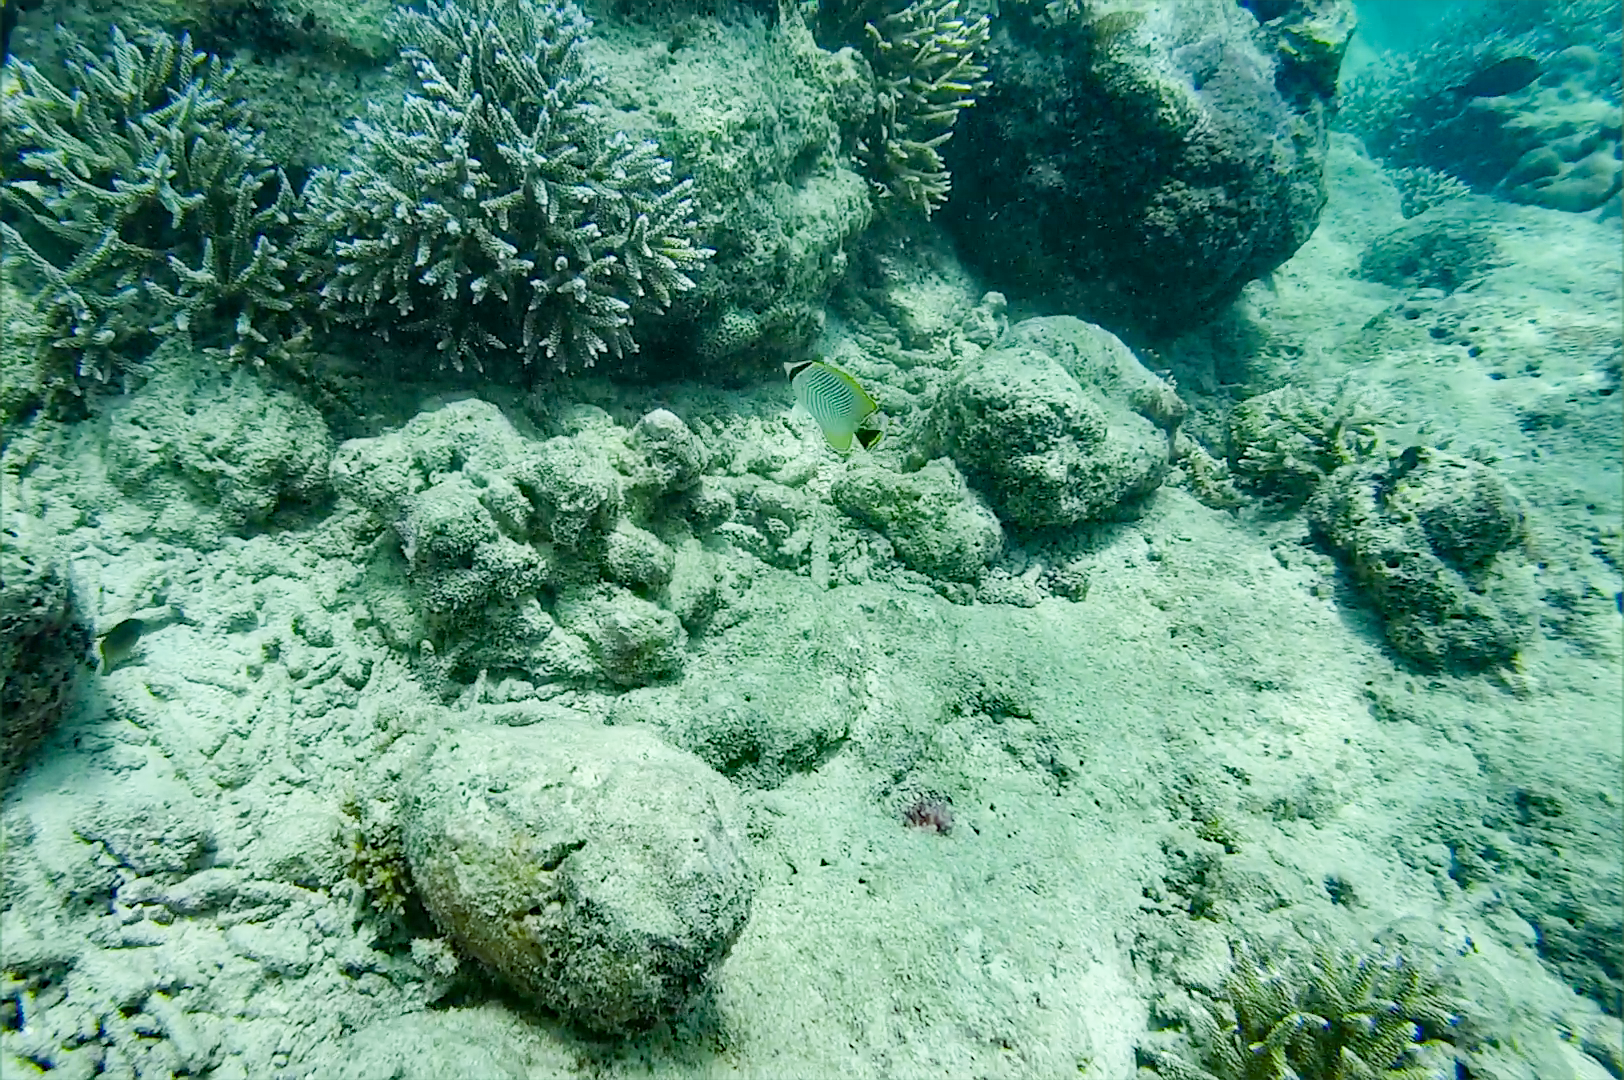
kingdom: Animalia
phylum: Chordata
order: Perciformes
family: Chaetodontidae
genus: Chaetodon
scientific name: Chaetodon trifascialis
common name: Chevroned butterflyfish
